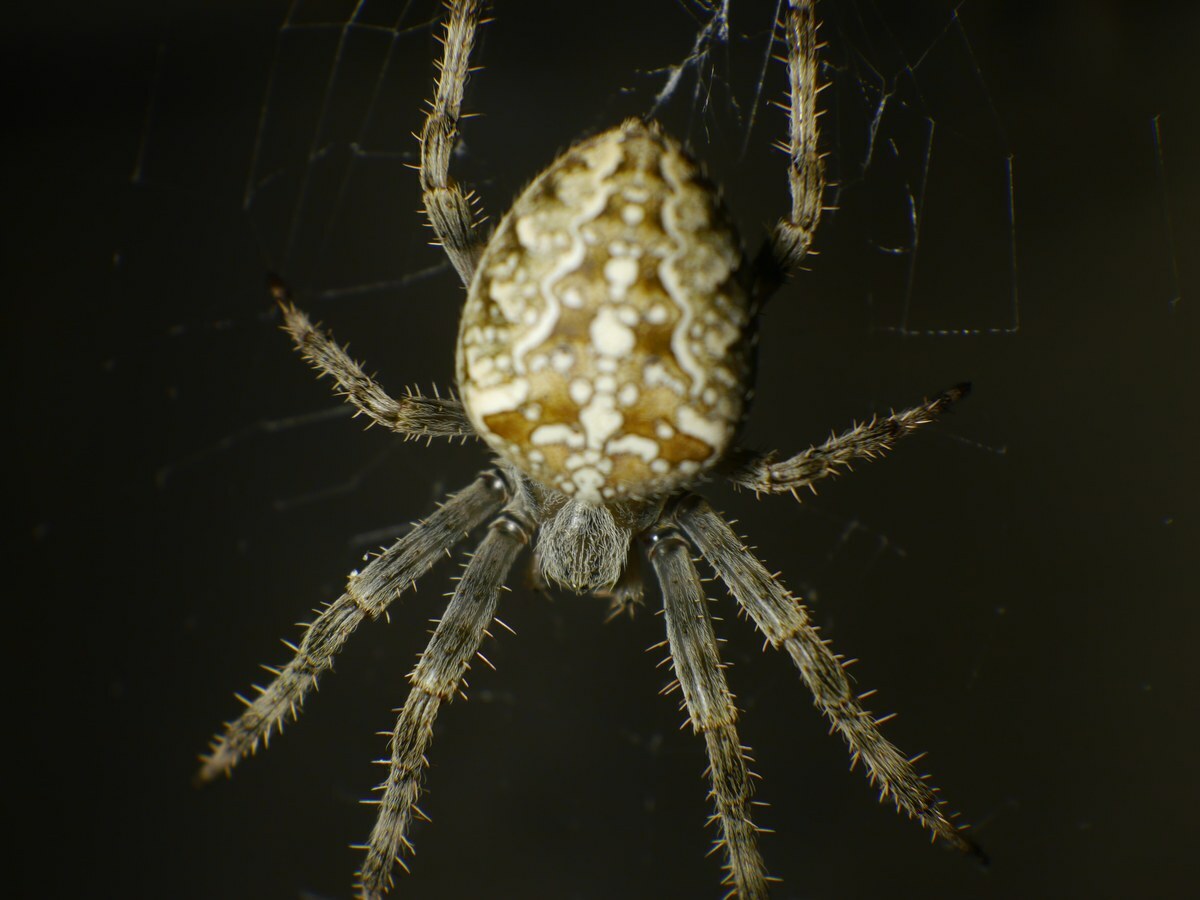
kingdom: Animalia
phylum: Arthropoda
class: Arachnida
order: Araneae
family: Araneidae
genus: Araneus
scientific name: Araneus diadematus
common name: Cross orbweaver
